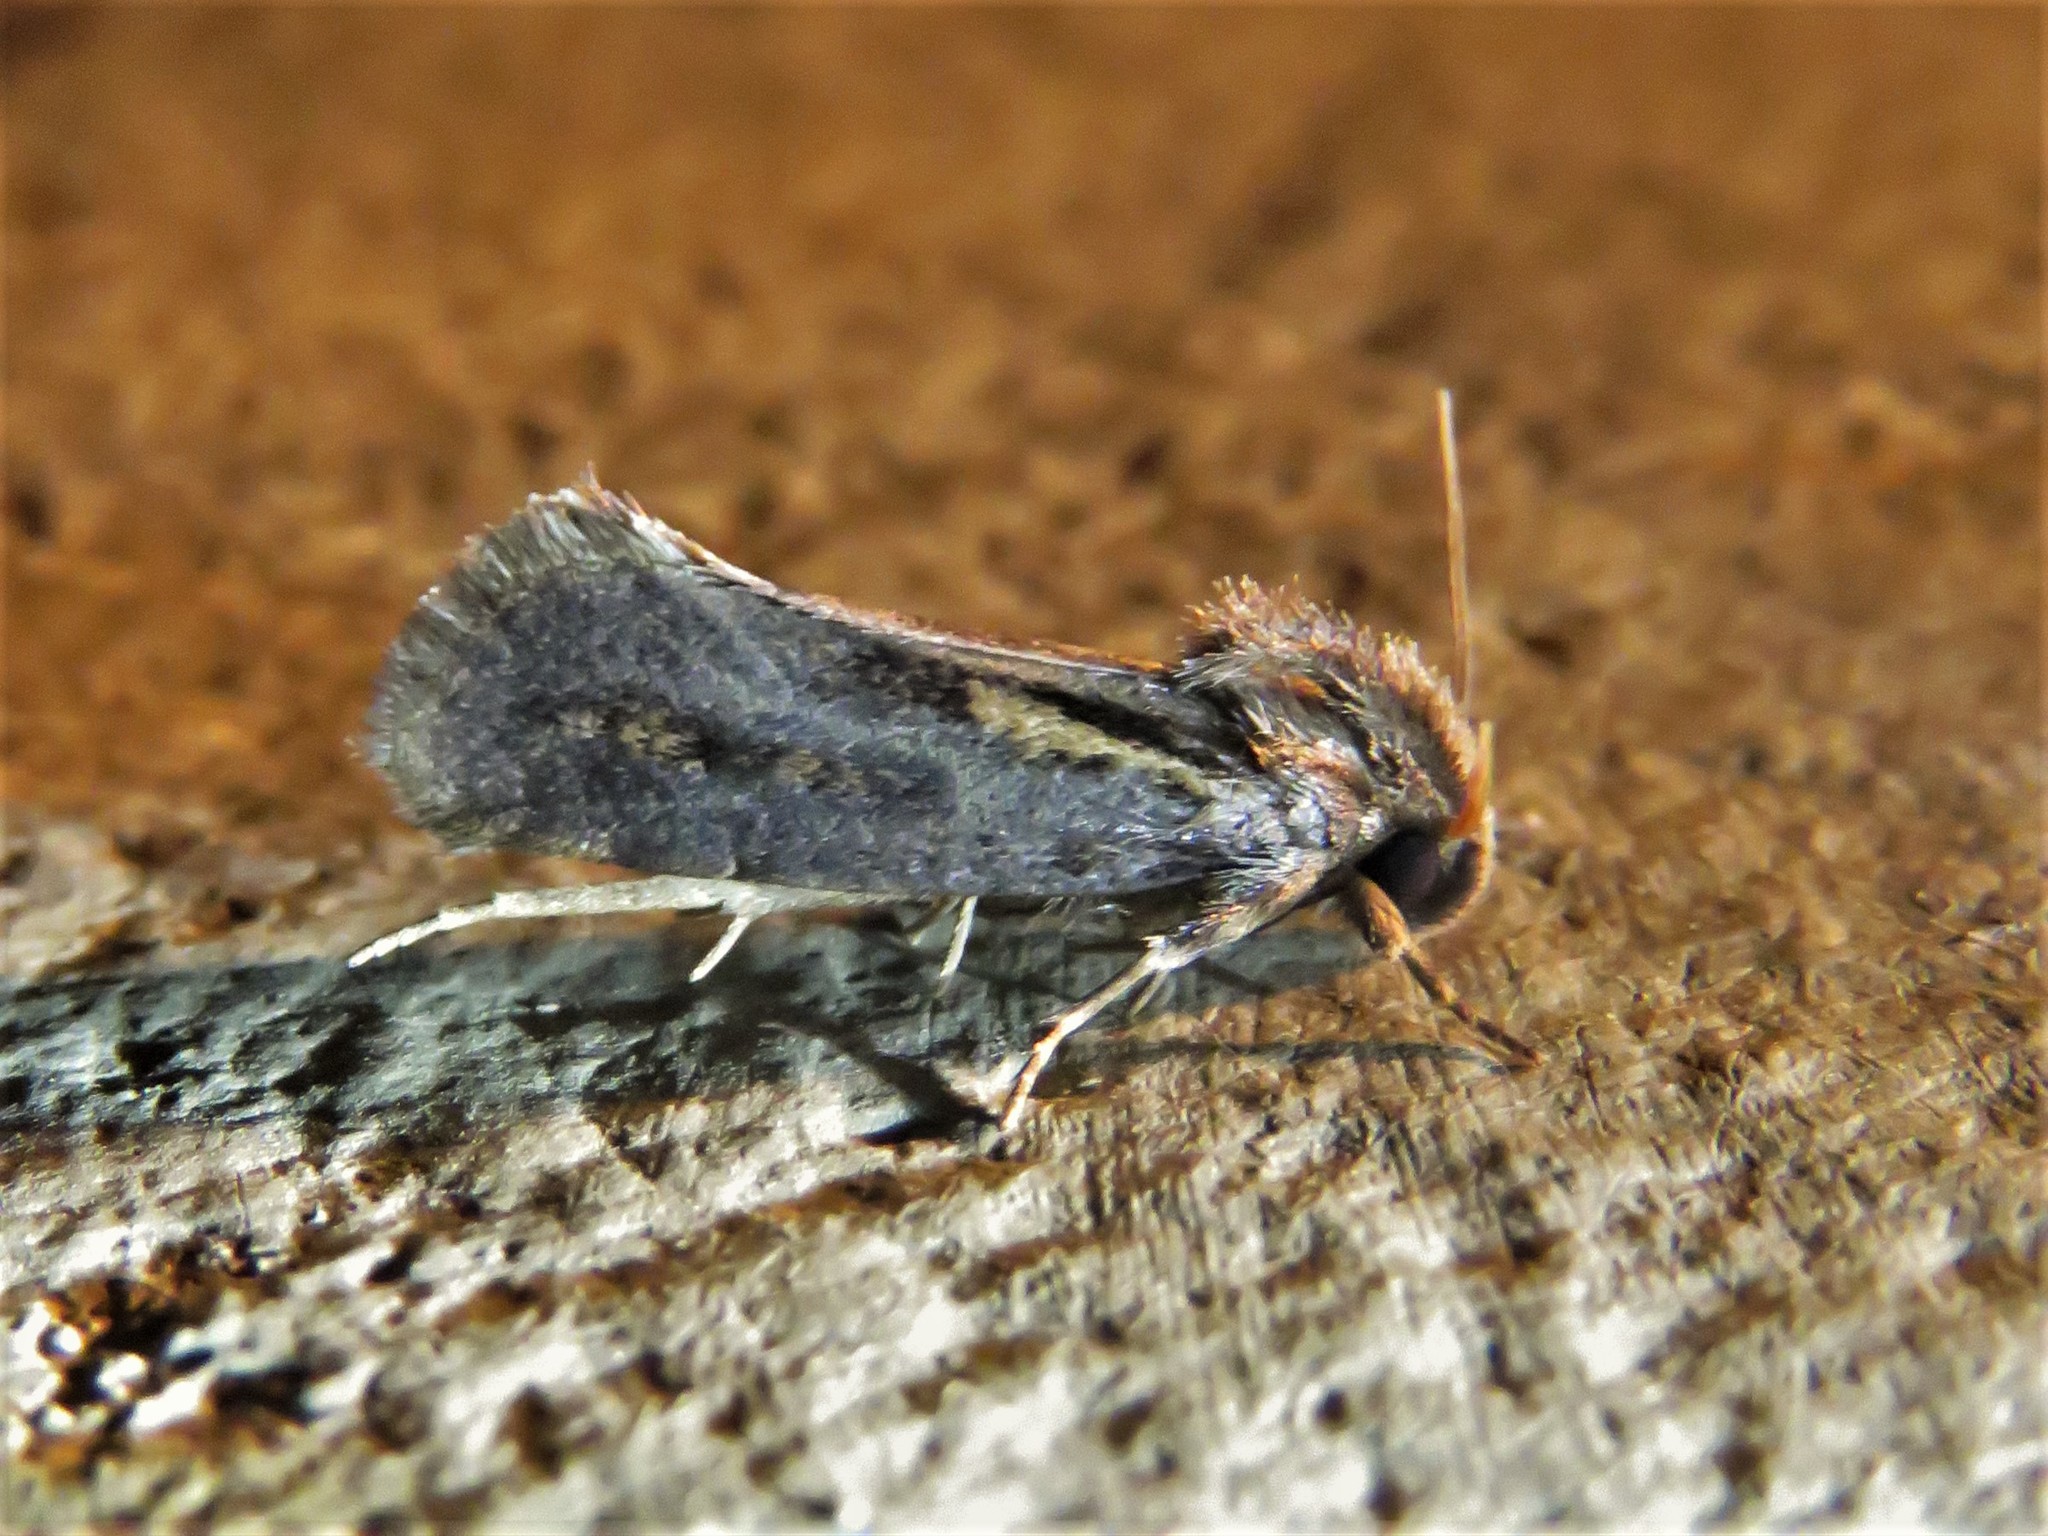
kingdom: Animalia
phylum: Arthropoda
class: Insecta
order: Lepidoptera
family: Tineidae
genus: Acrolophus
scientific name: Acrolophus popeanella
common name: Clemens' grass tubeworm moth
